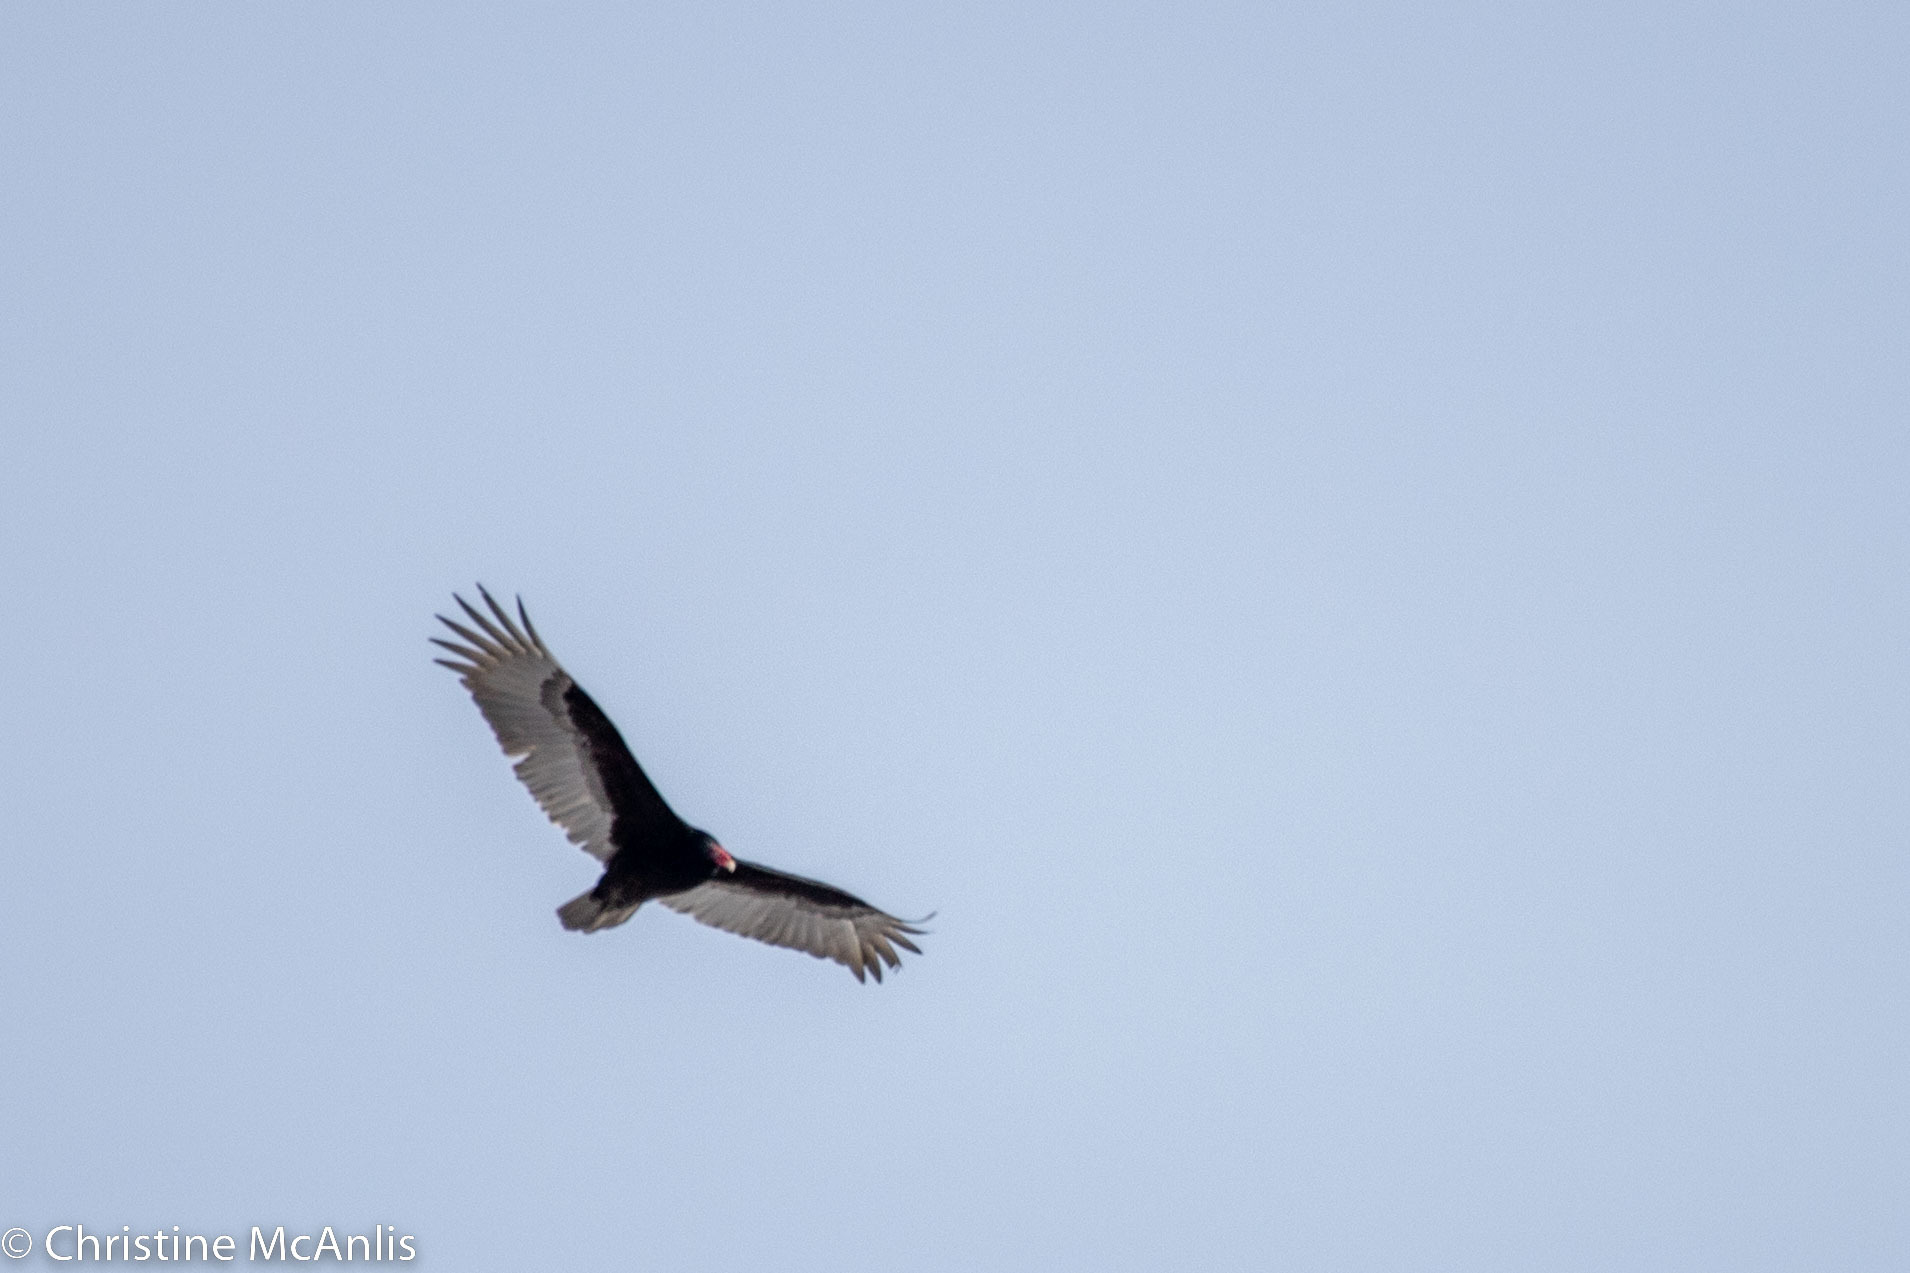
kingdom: Animalia
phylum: Chordata
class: Aves
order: Accipitriformes
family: Cathartidae
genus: Cathartes
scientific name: Cathartes aura
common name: Turkey vulture
